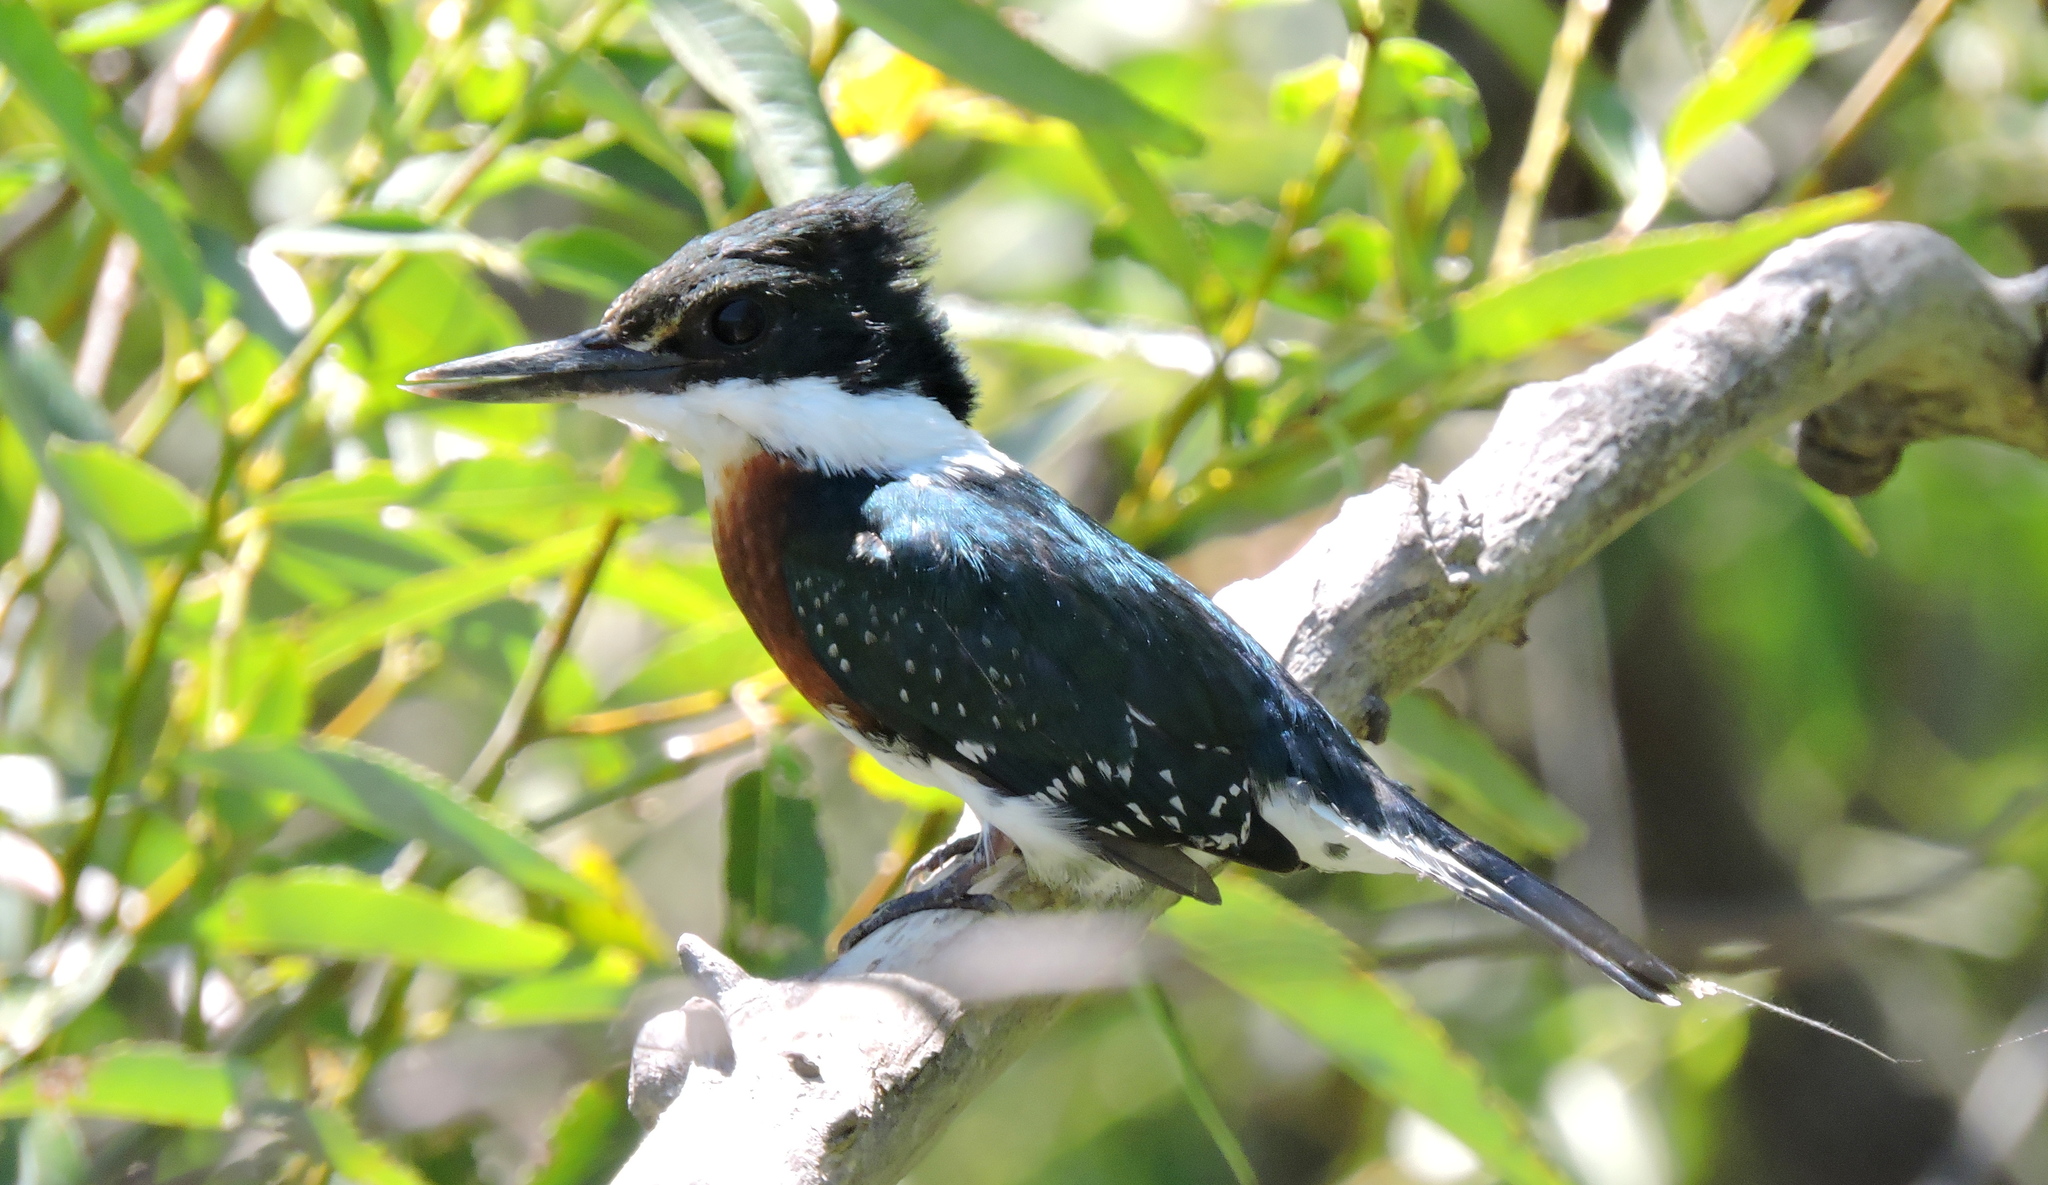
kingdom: Animalia
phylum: Chordata
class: Aves
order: Coraciiformes
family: Alcedinidae
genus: Chloroceryle
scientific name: Chloroceryle americana
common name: Green kingfisher
